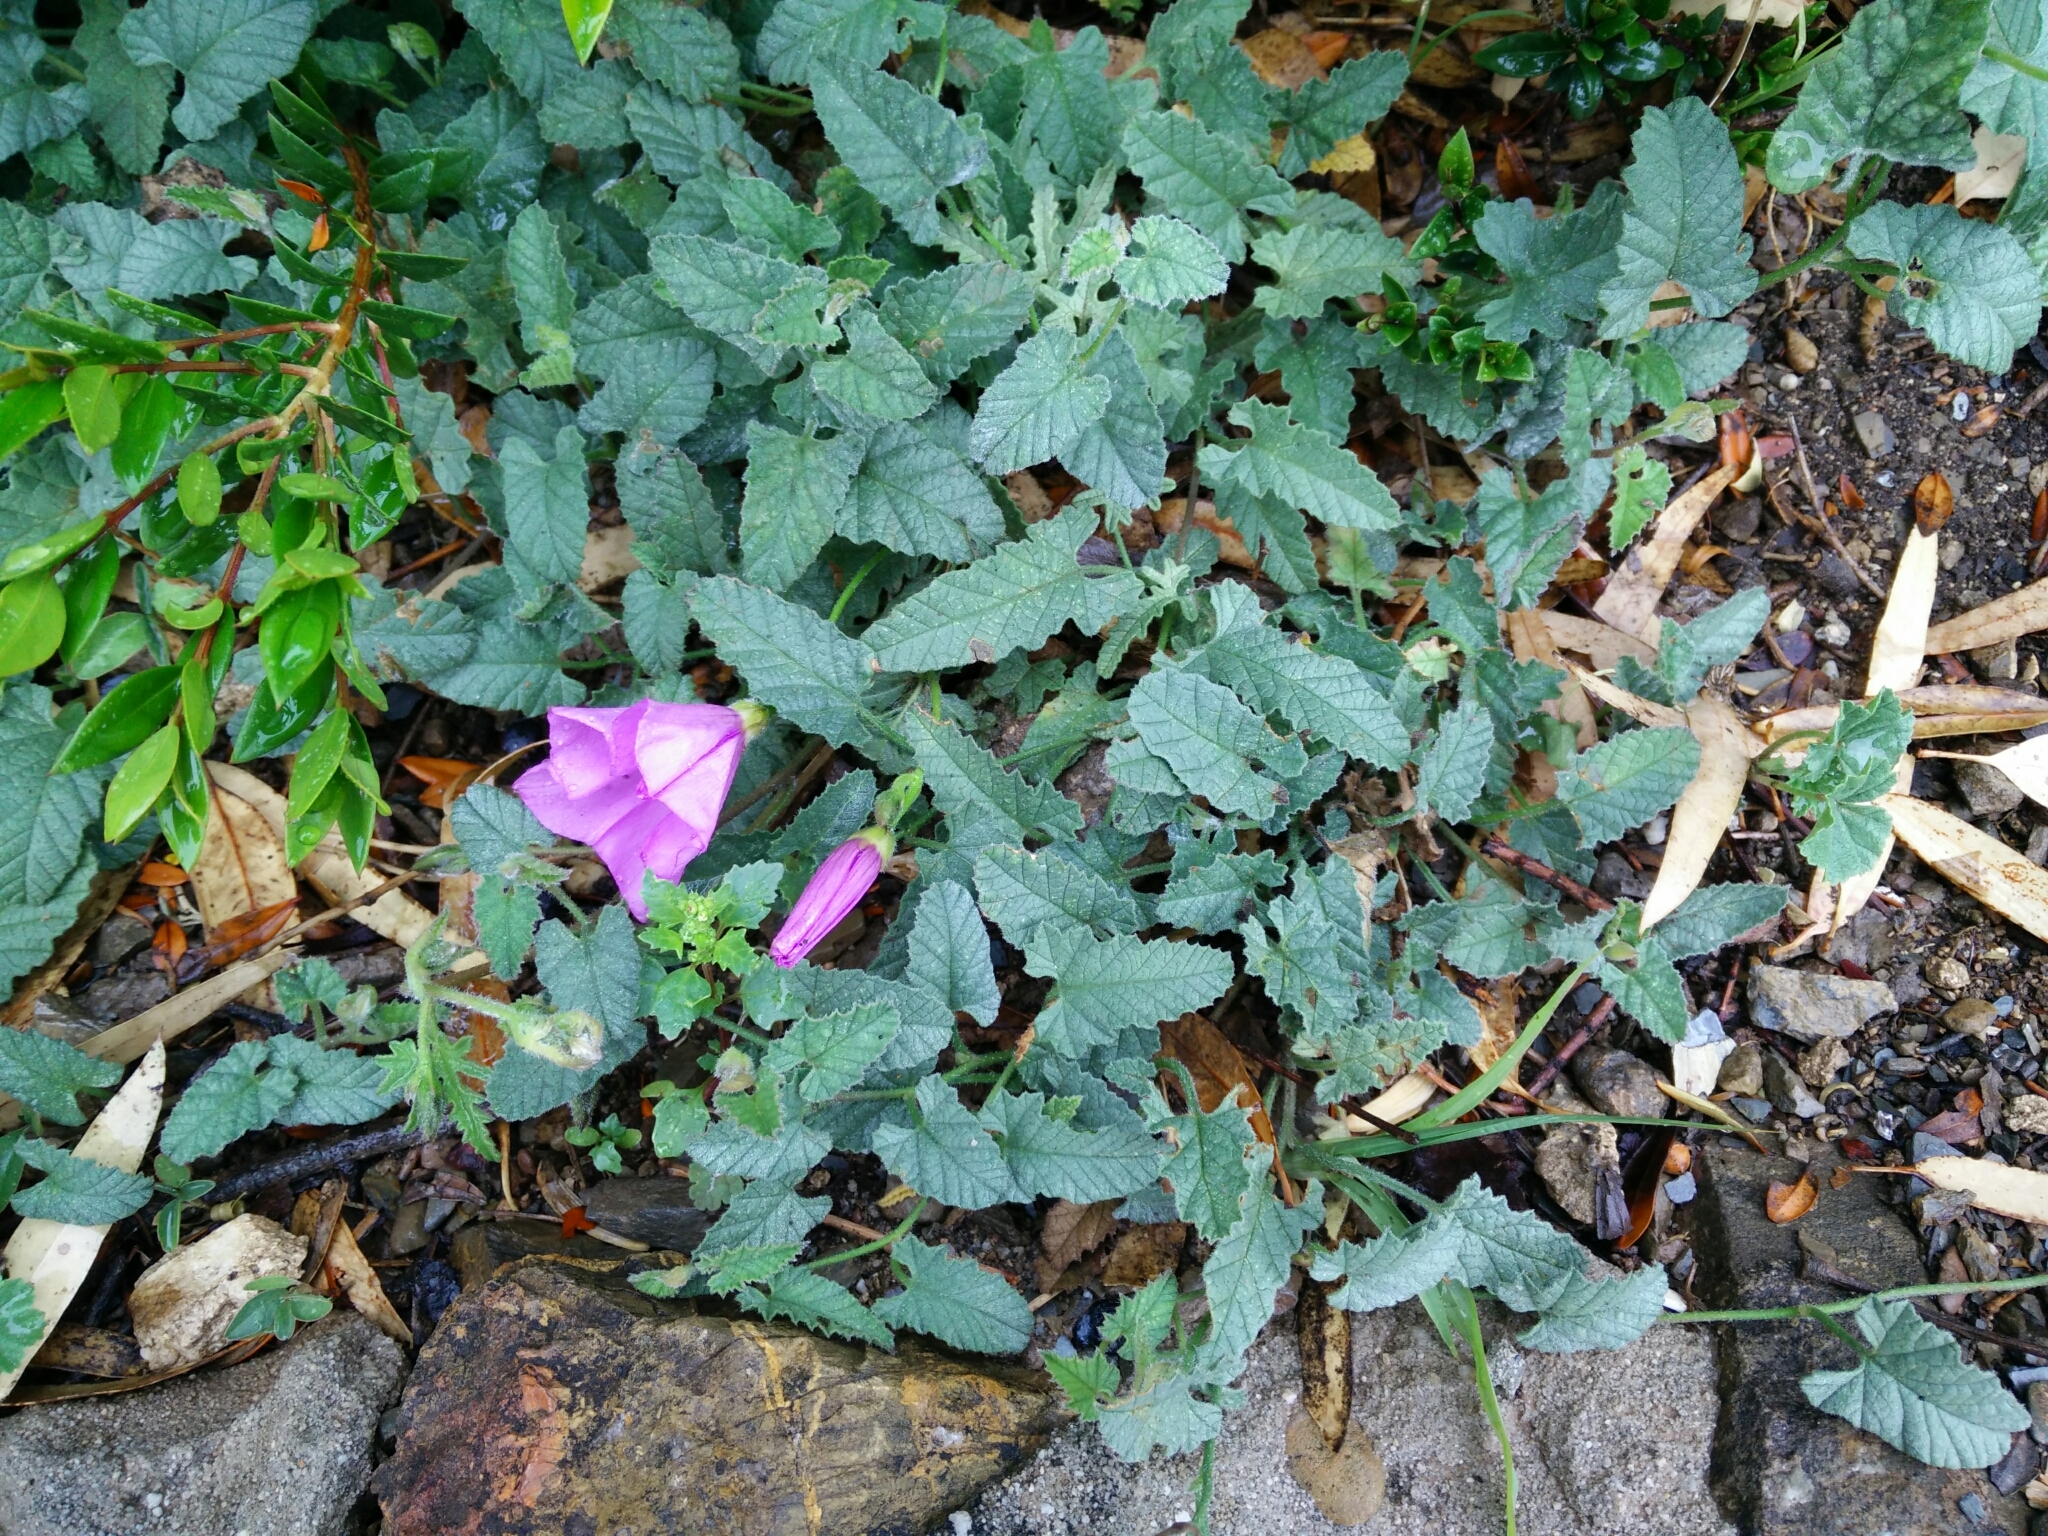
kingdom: Plantae
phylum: Tracheophyta
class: Magnoliopsida
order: Solanales
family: Convolvulaceae
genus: Convolvulus
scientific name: Convolvulus althaeoides
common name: Mallow bindweed
